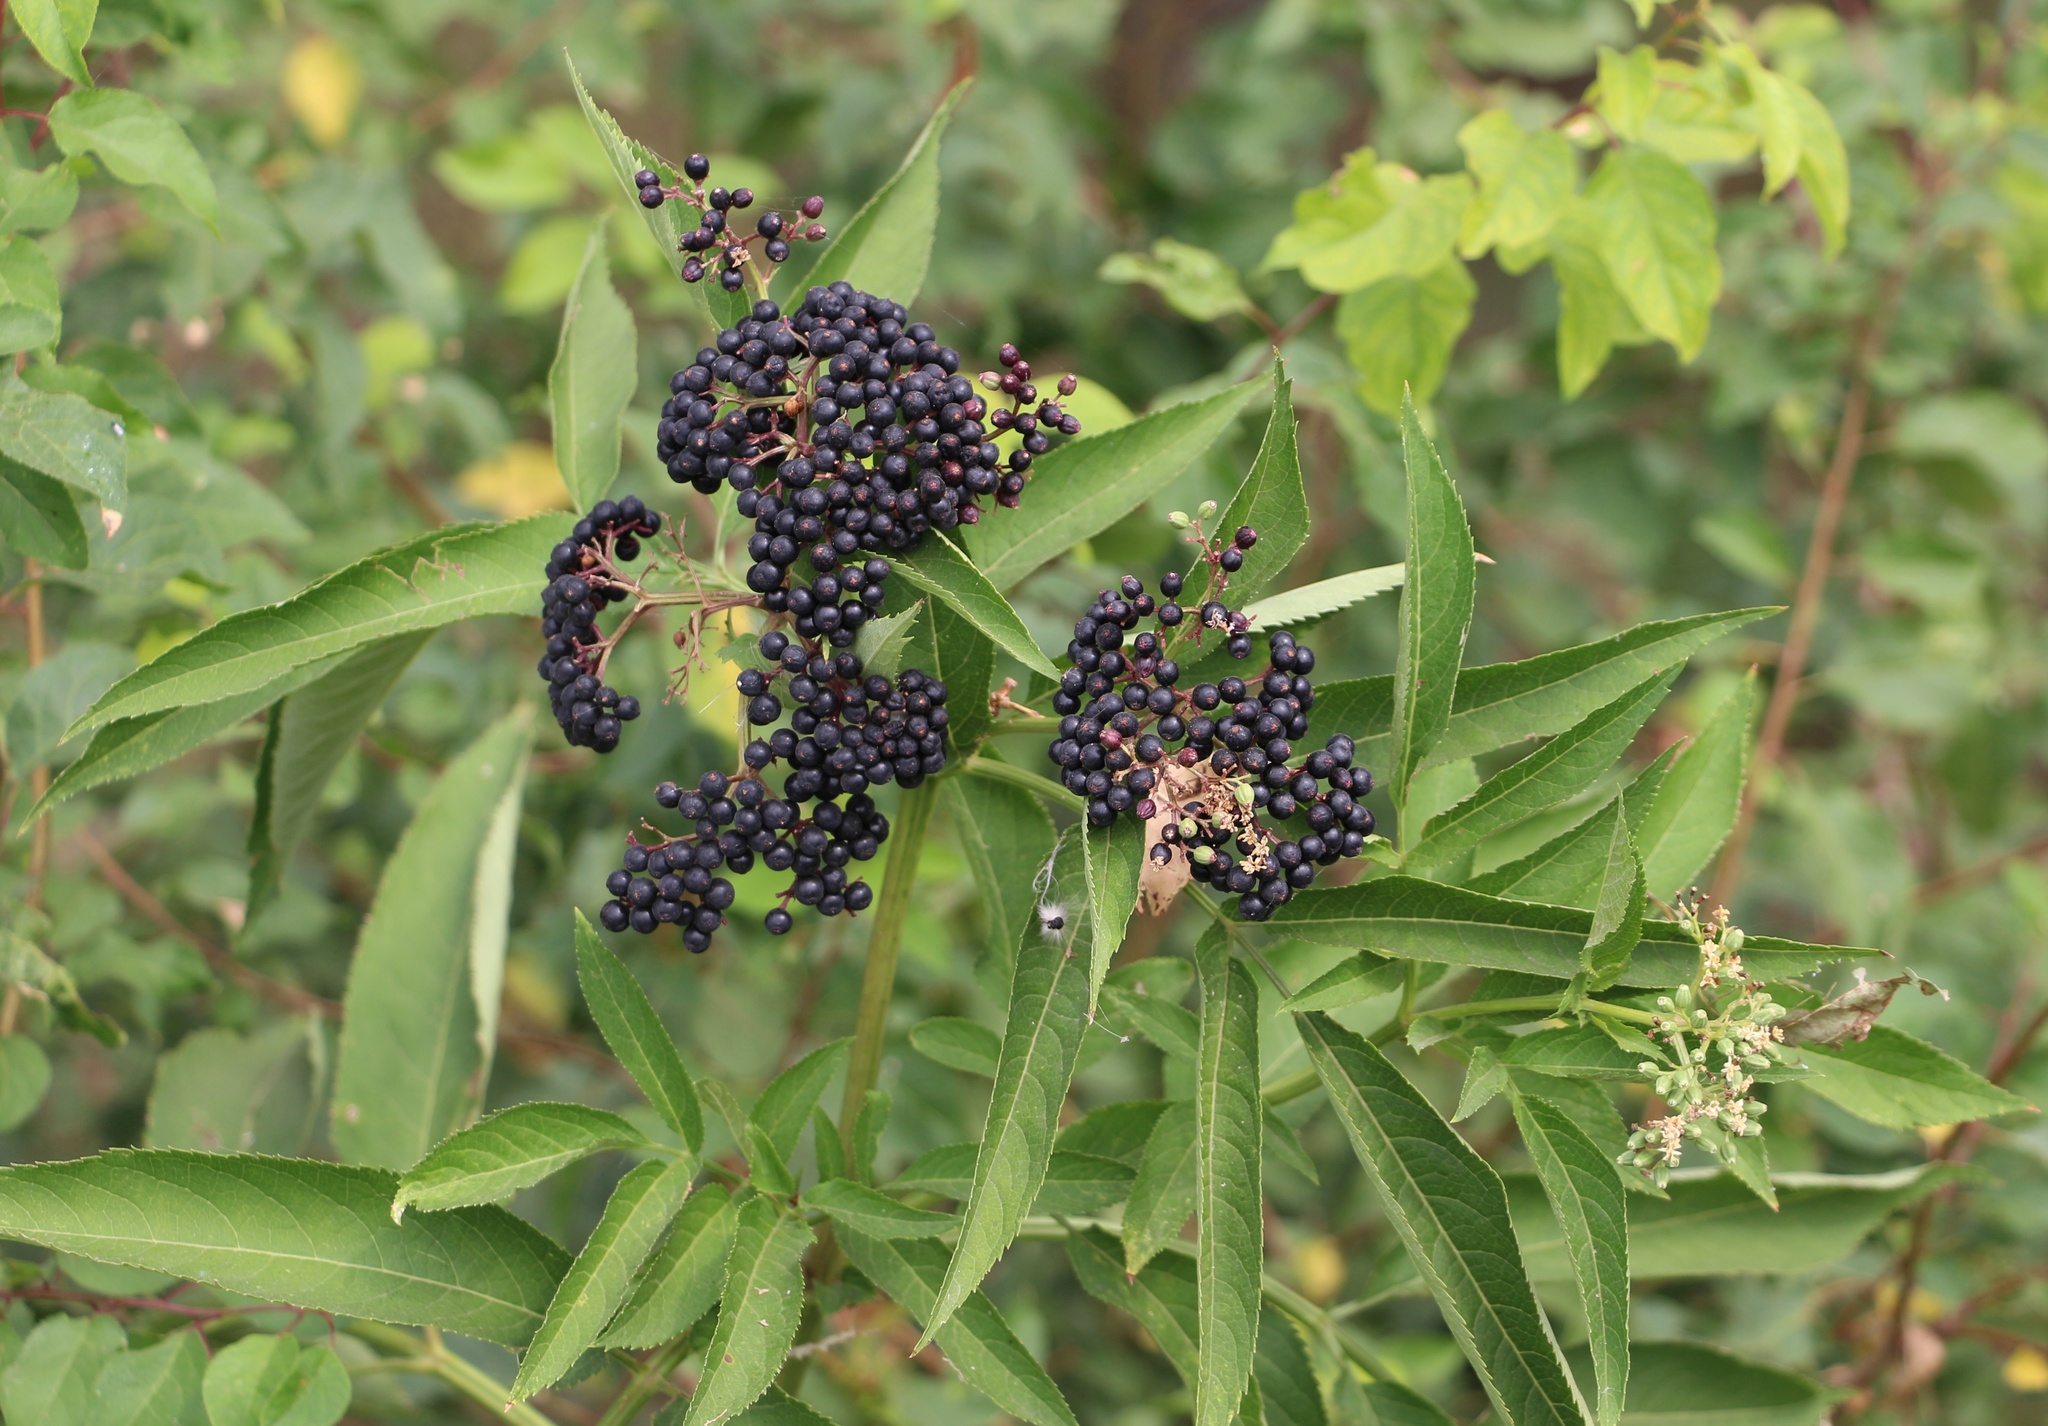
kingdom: Plantae
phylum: Tracheophyta
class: Magnoliopsida
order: Dipsacales
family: Viburnaceae
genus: Sambucus
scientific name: Sambucus ebulus
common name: Dwarf elder
